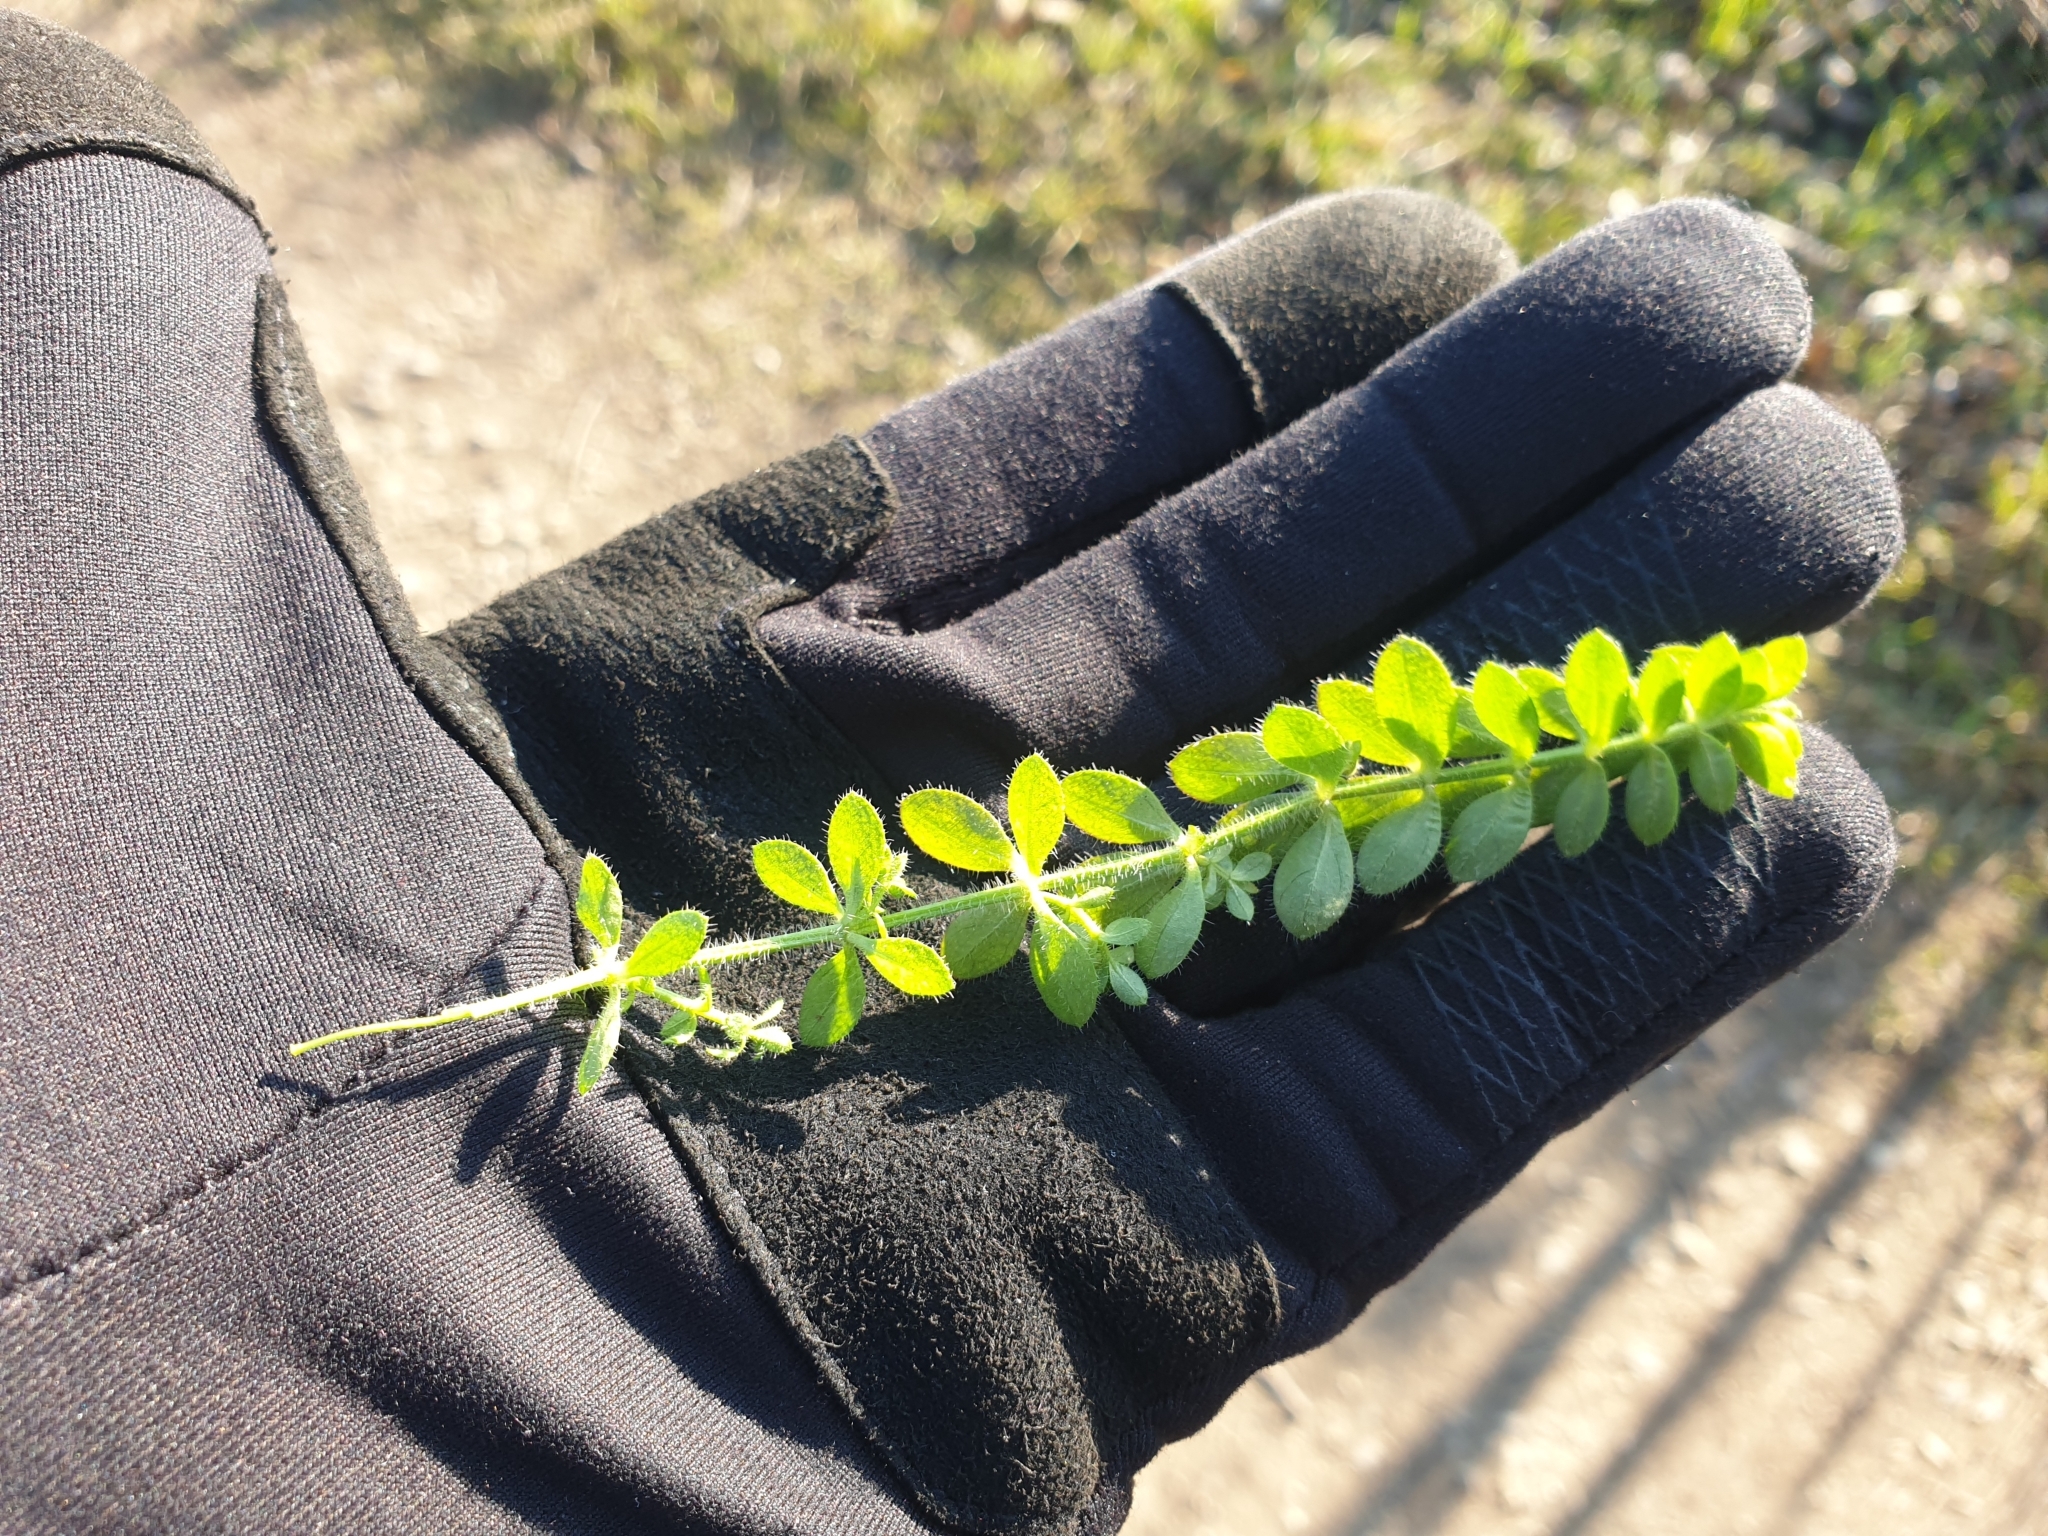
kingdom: Plantae
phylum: Tracheophyta
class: Magnoliopsida
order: Gentianales
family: Rubiaceae
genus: Cruciata
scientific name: Cruciata laevipes
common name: Crosswort
